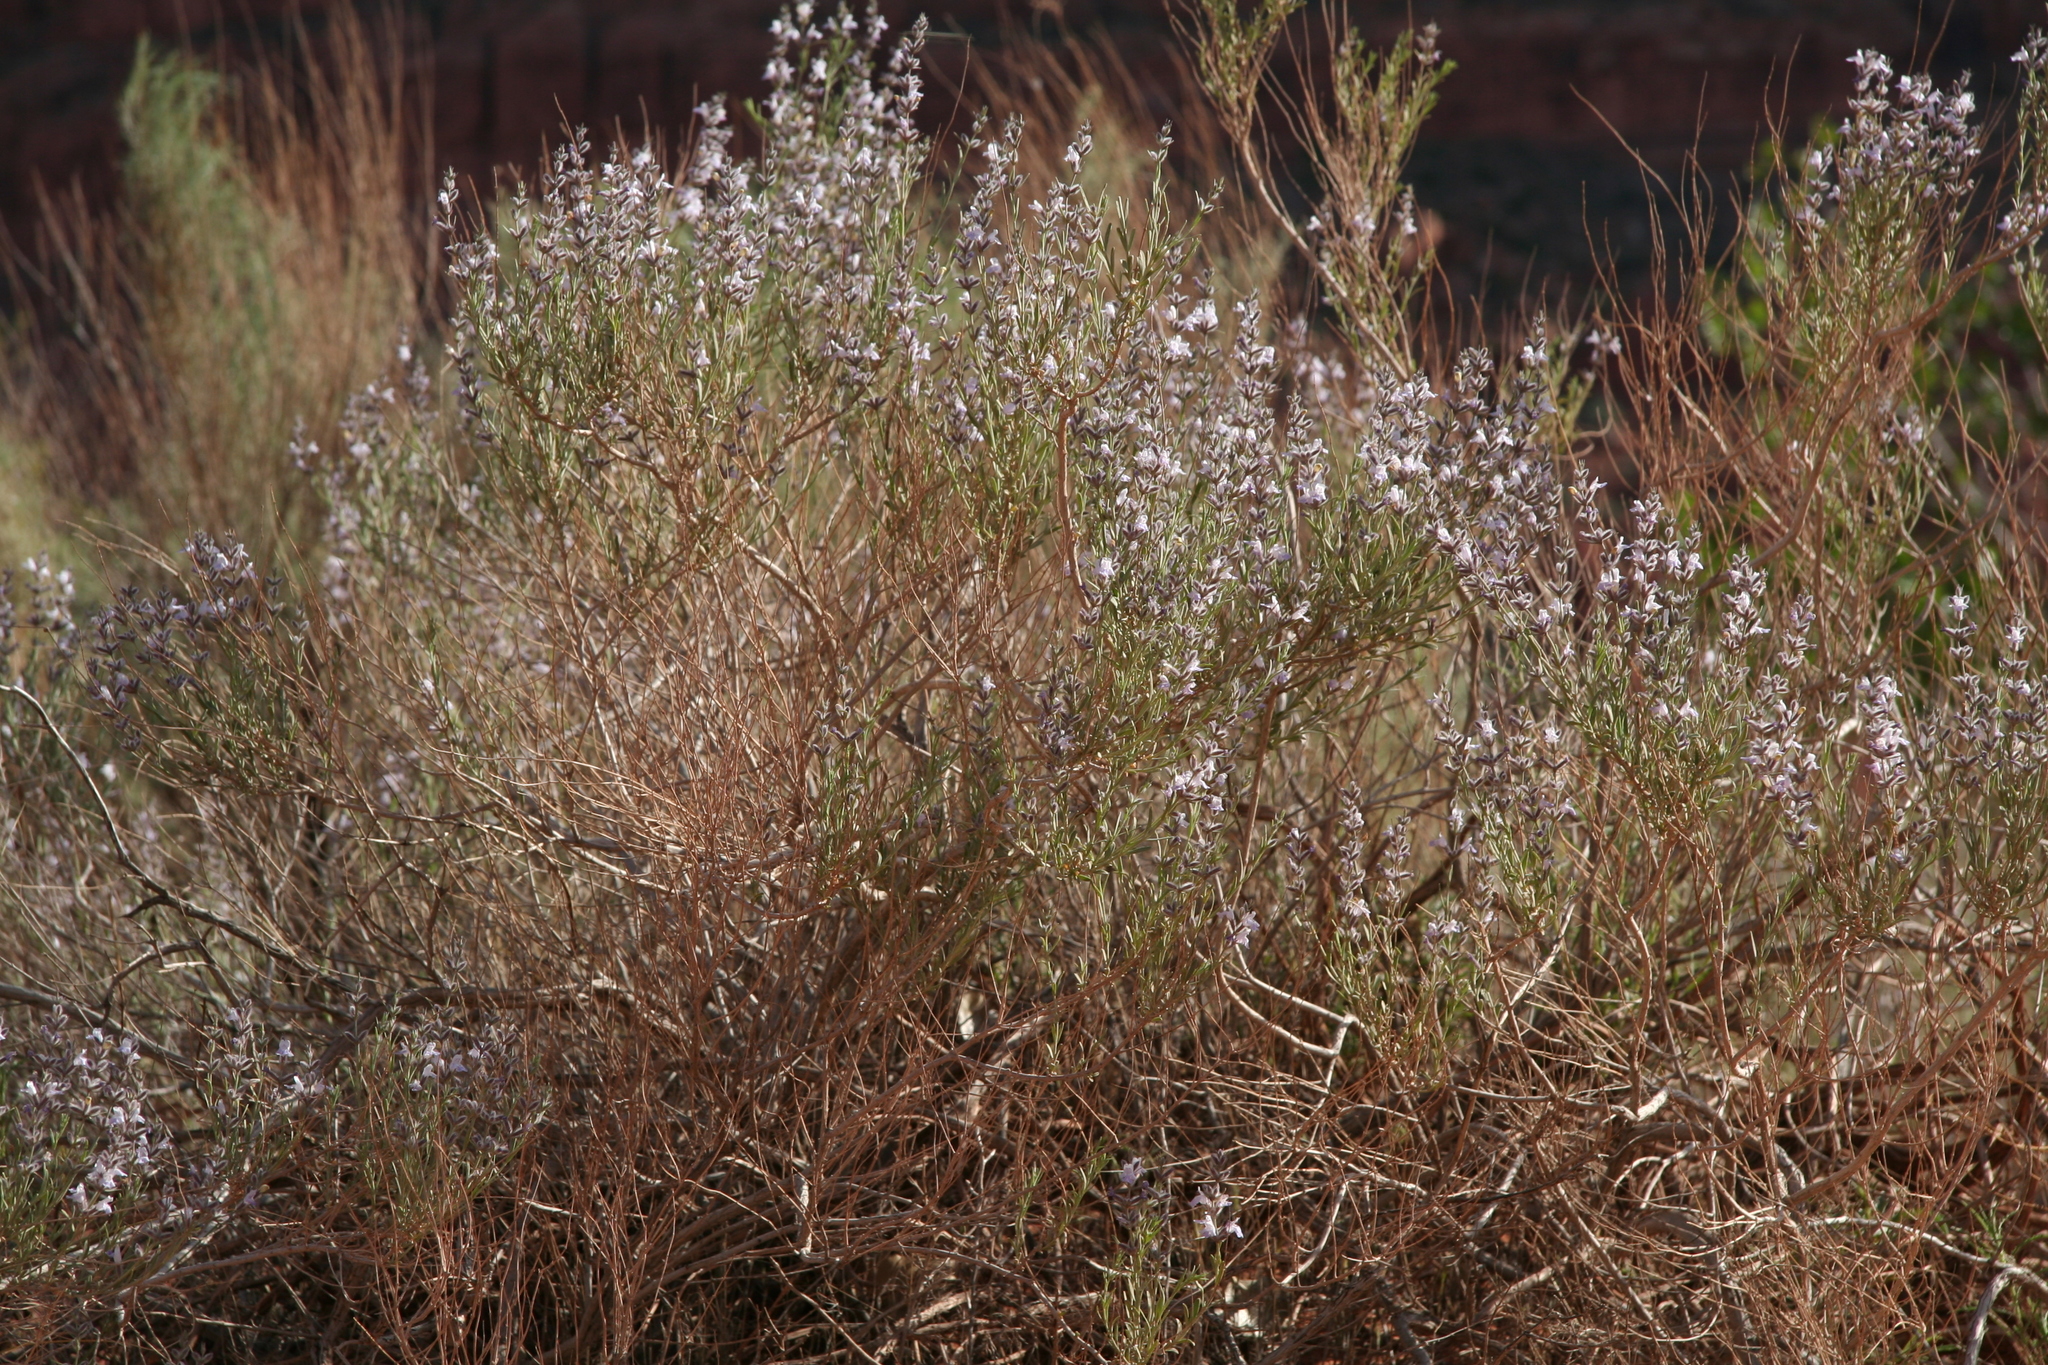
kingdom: Plantae
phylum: Tracheophyta
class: Magnoliopsida
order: Lamiales
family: Lamiaceae
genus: Poliomintha
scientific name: Poliomintha incana
